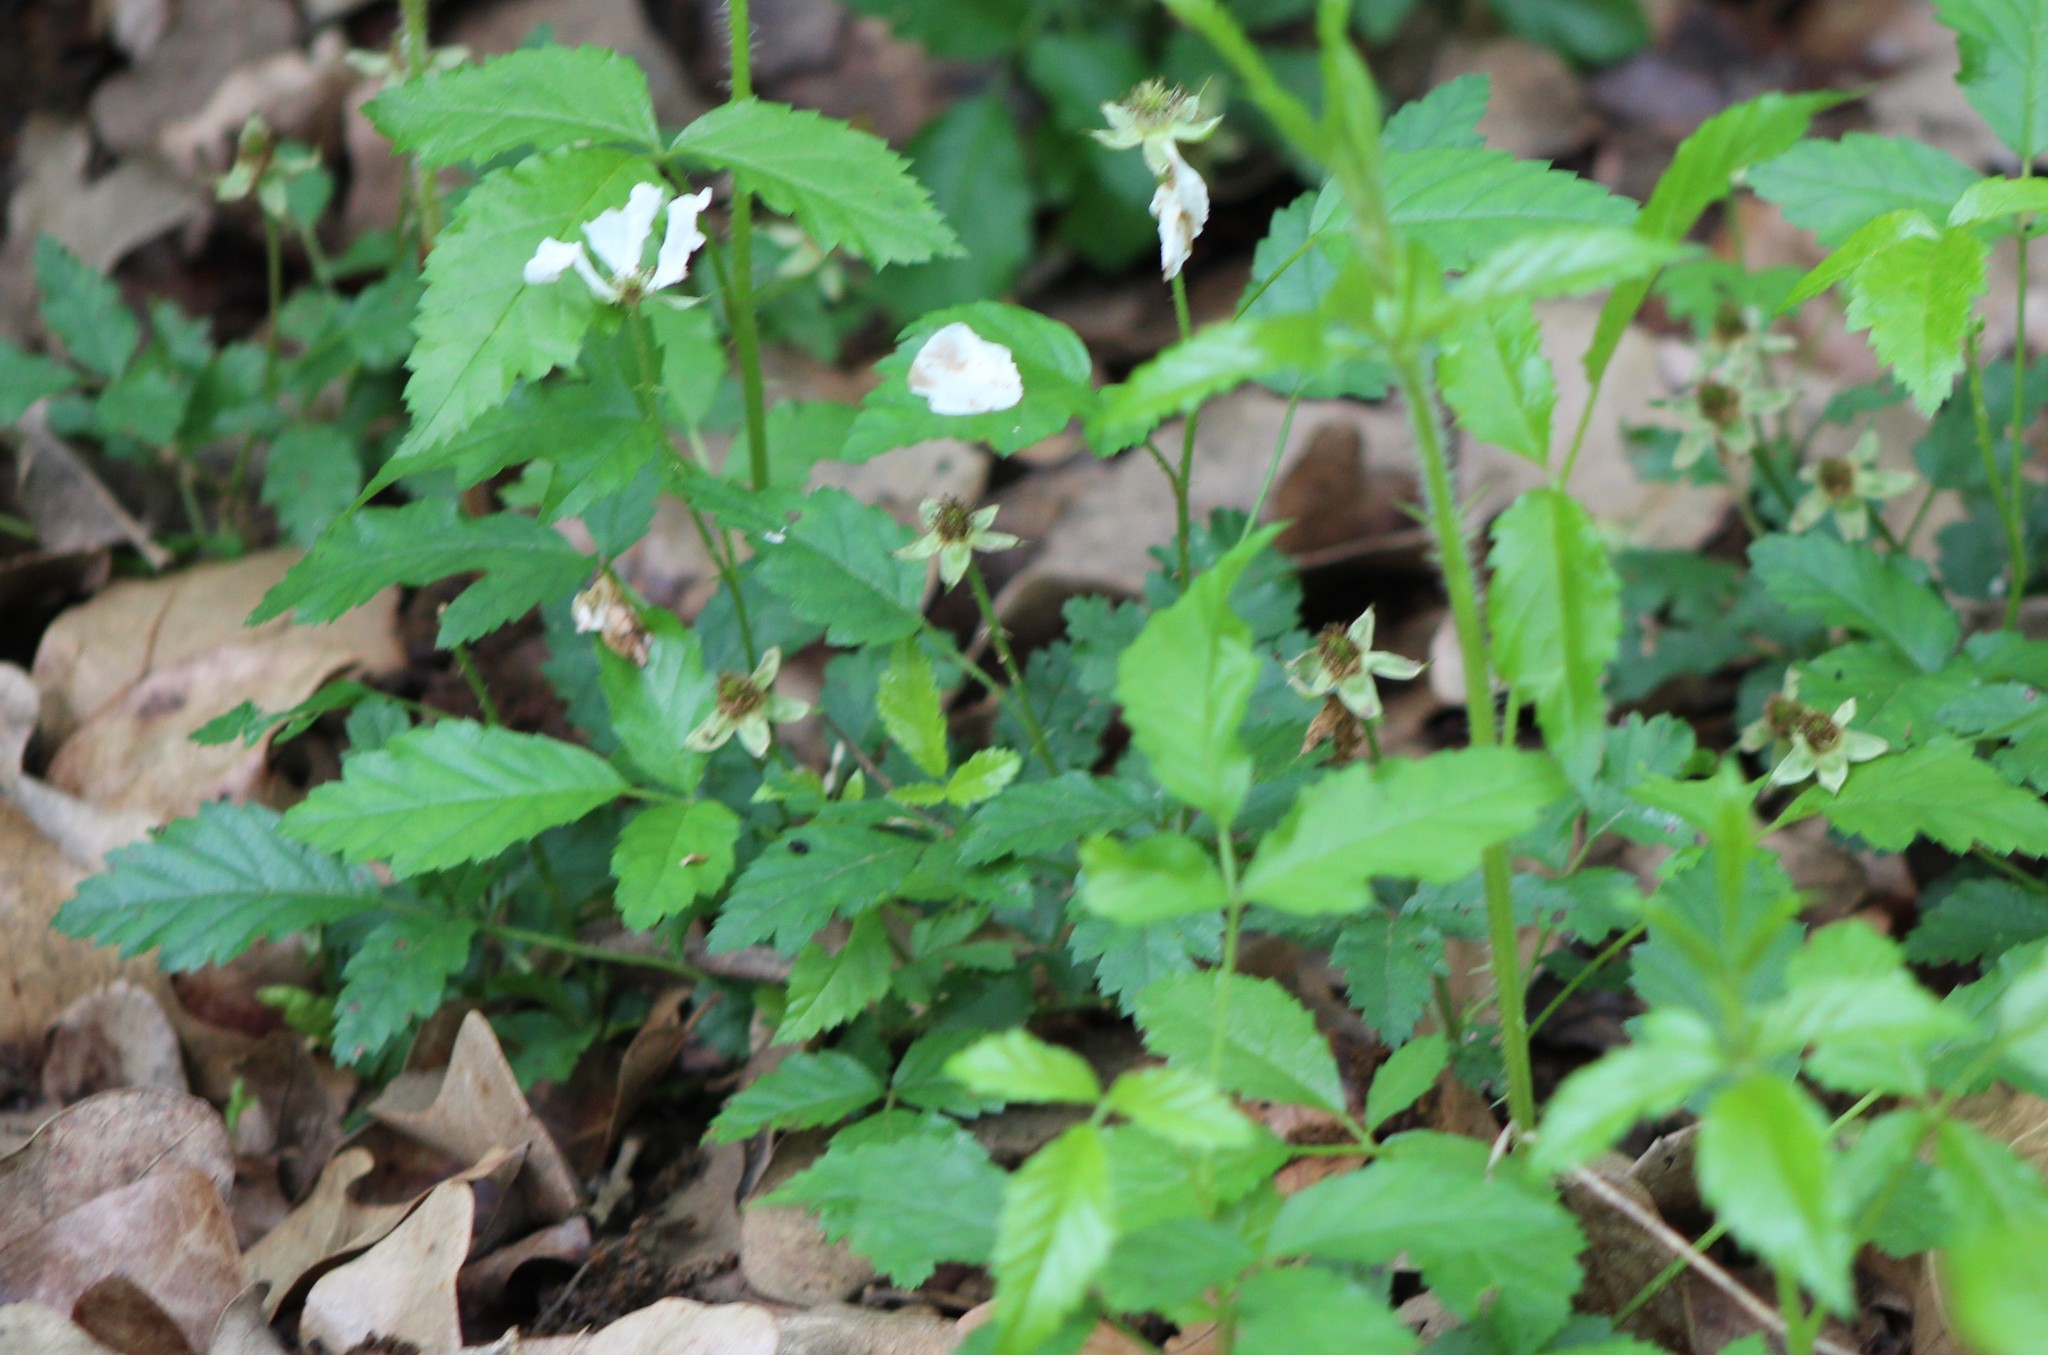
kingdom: Plantae
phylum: Tracheophyta
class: Magnoliopsida
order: Rosales
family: Rosaceae
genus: Rubus
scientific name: Rubus trivialis
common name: Southern dewberry
